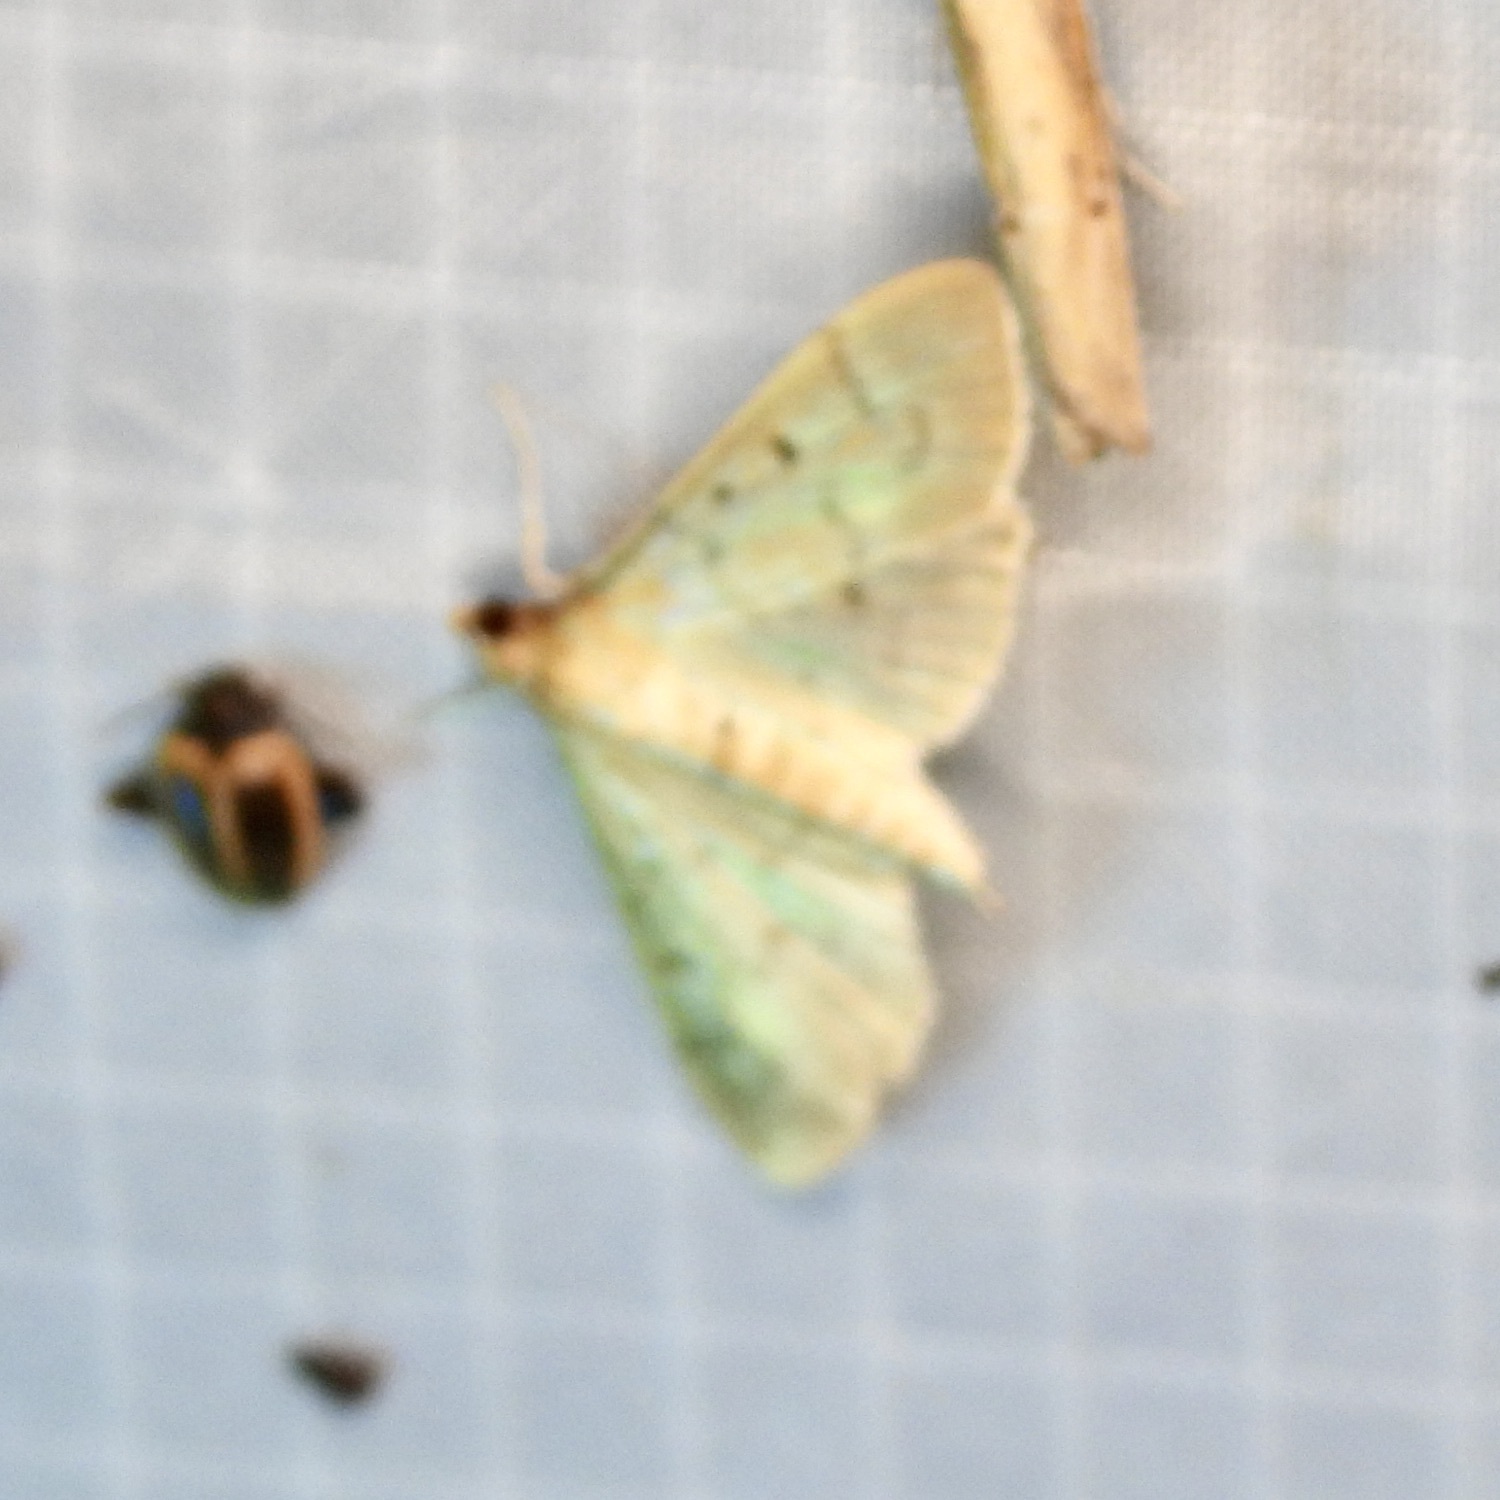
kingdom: Animalia
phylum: Arthropoda
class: Insecta
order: Lepidoptera
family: Crambidae
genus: Herpetogramma
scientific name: Herpetogramma bipunctalis
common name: Southern beet webworm
